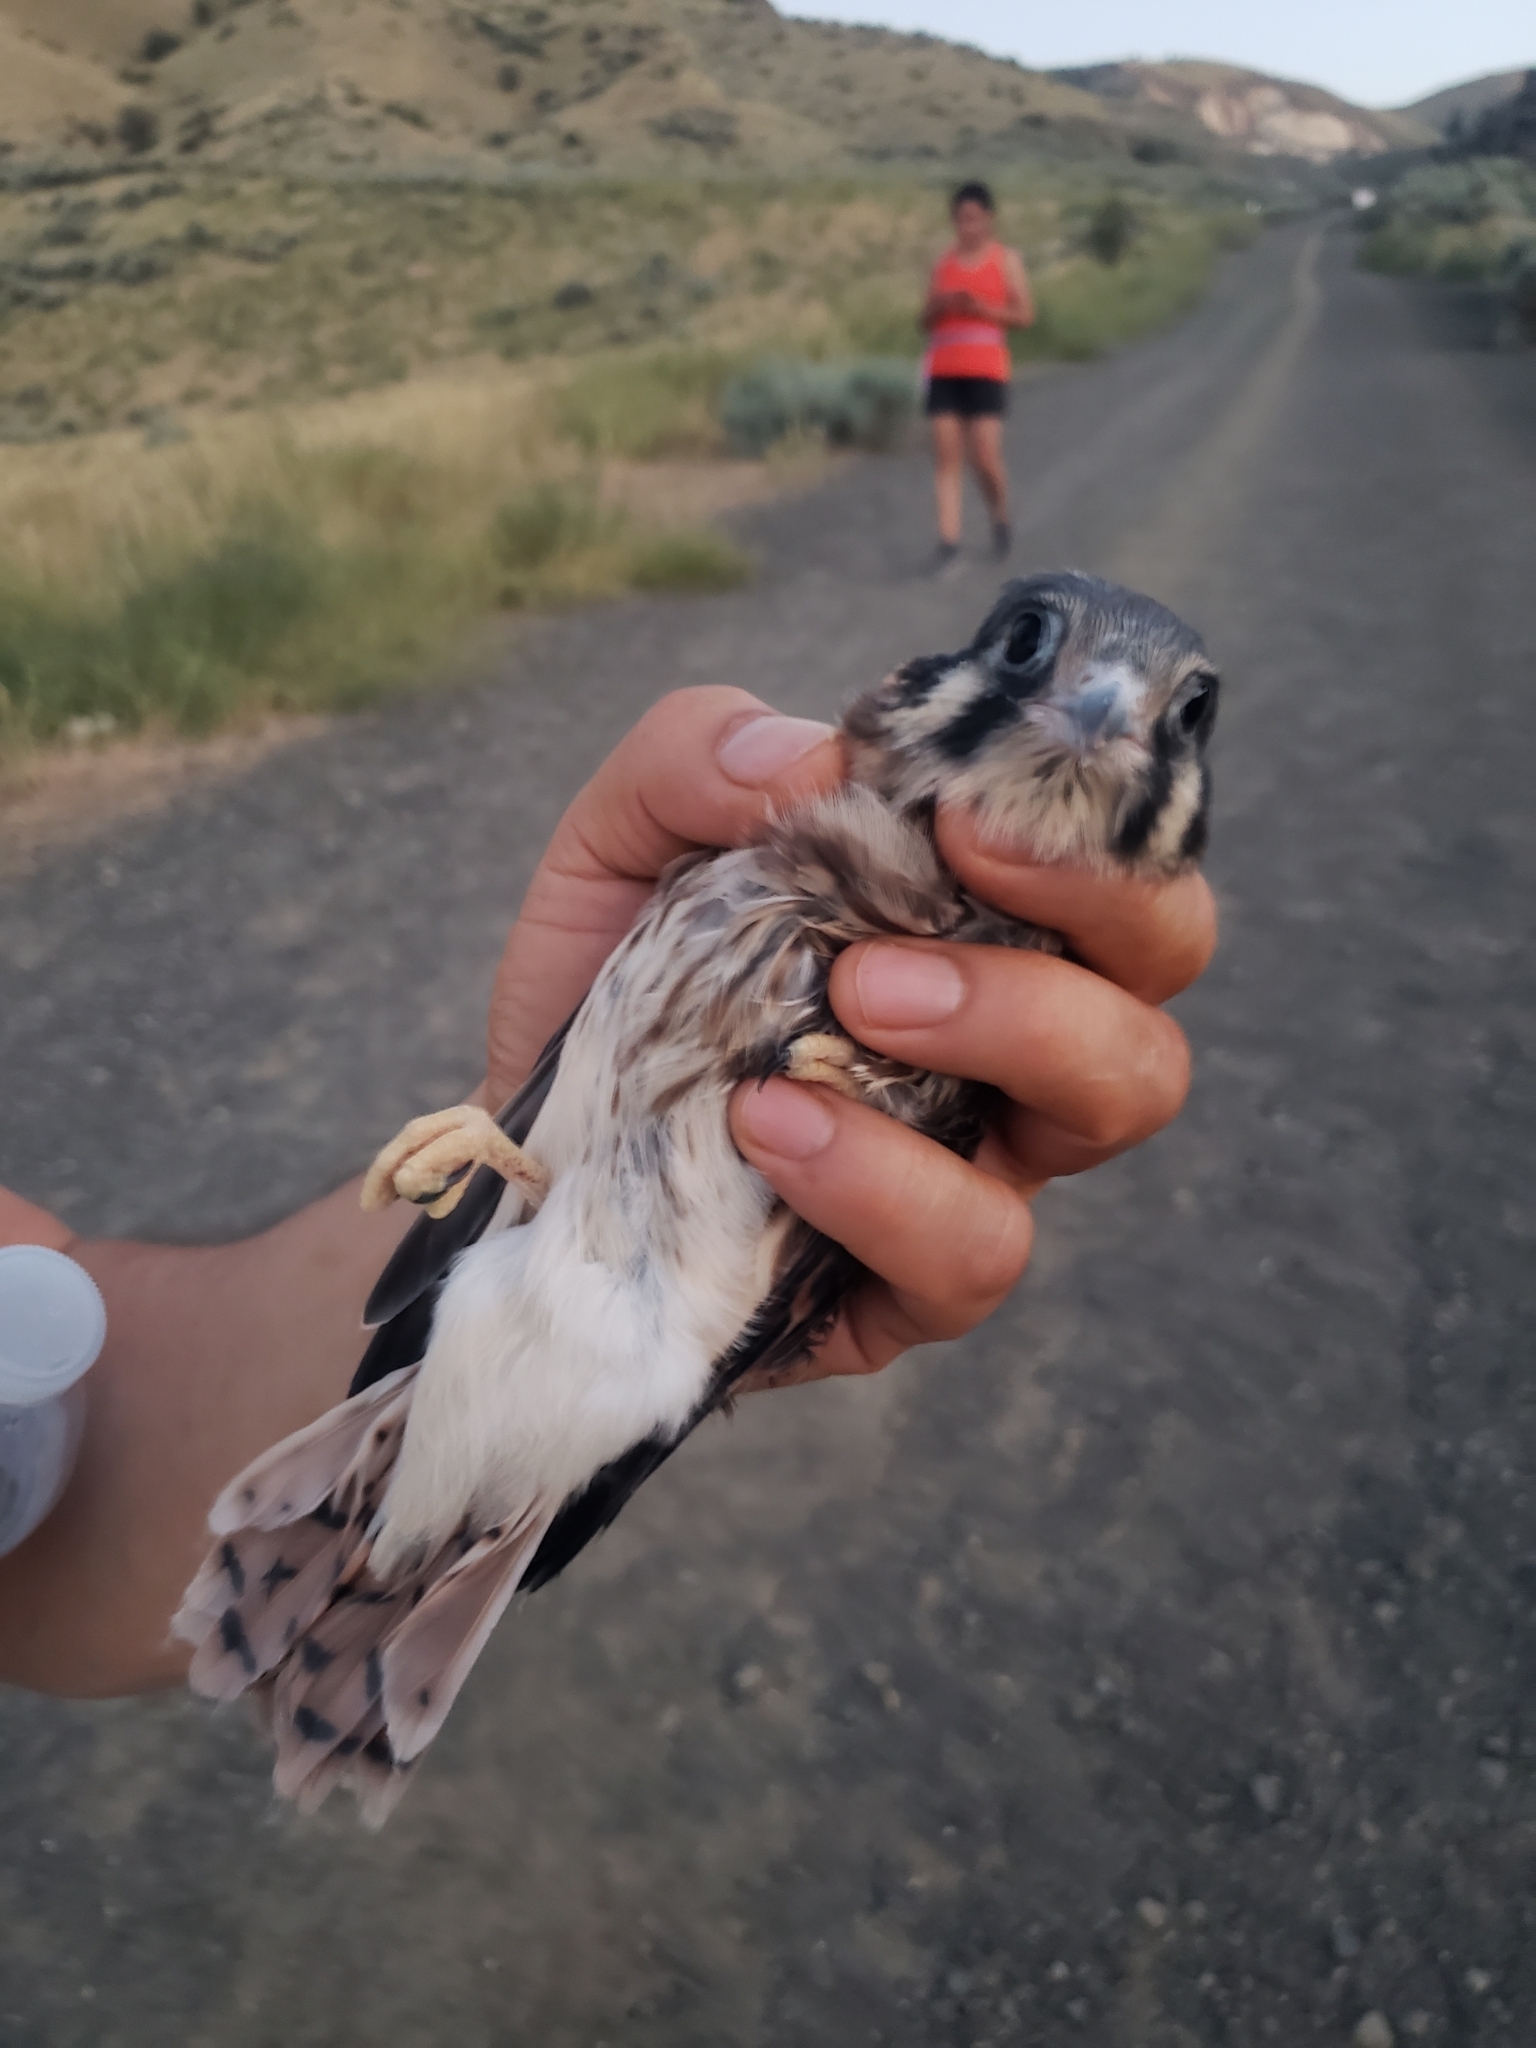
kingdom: Animalia
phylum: Chordata
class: Aves
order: Falconiformes
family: Falconidae
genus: Falco
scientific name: Falco sparverius
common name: American kestrel
